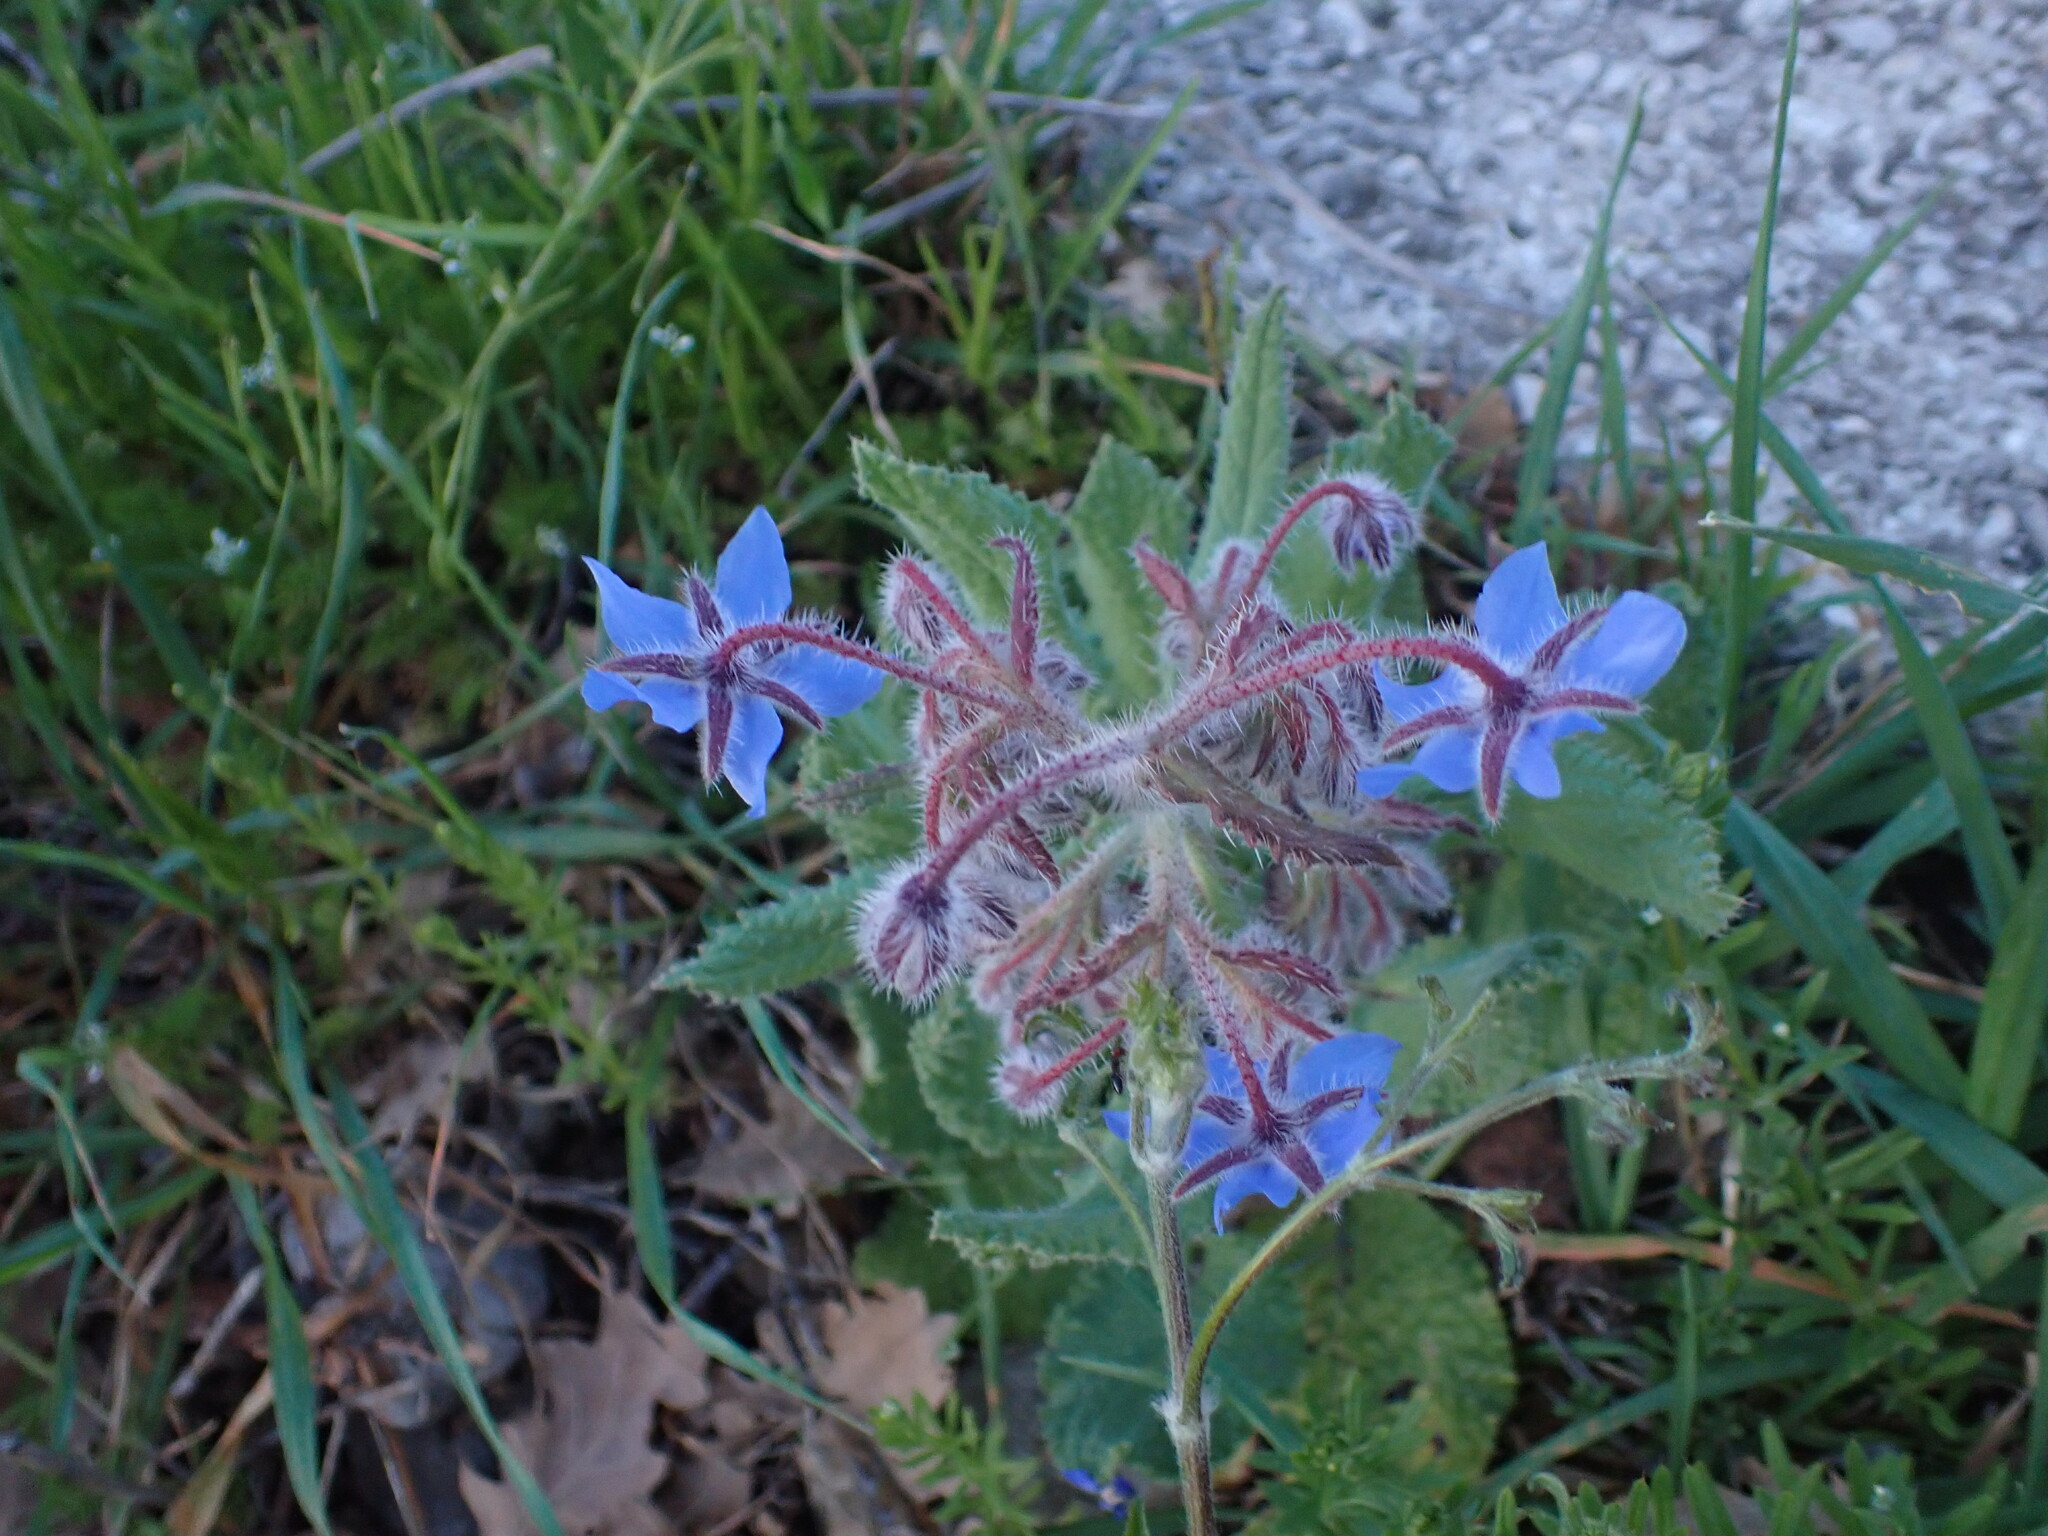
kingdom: Plantae
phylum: Tracheophyta
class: Magnoliopsida
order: Boraginales
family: Boraginaceae
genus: Borago
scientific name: Borago officinalis
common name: Borage
